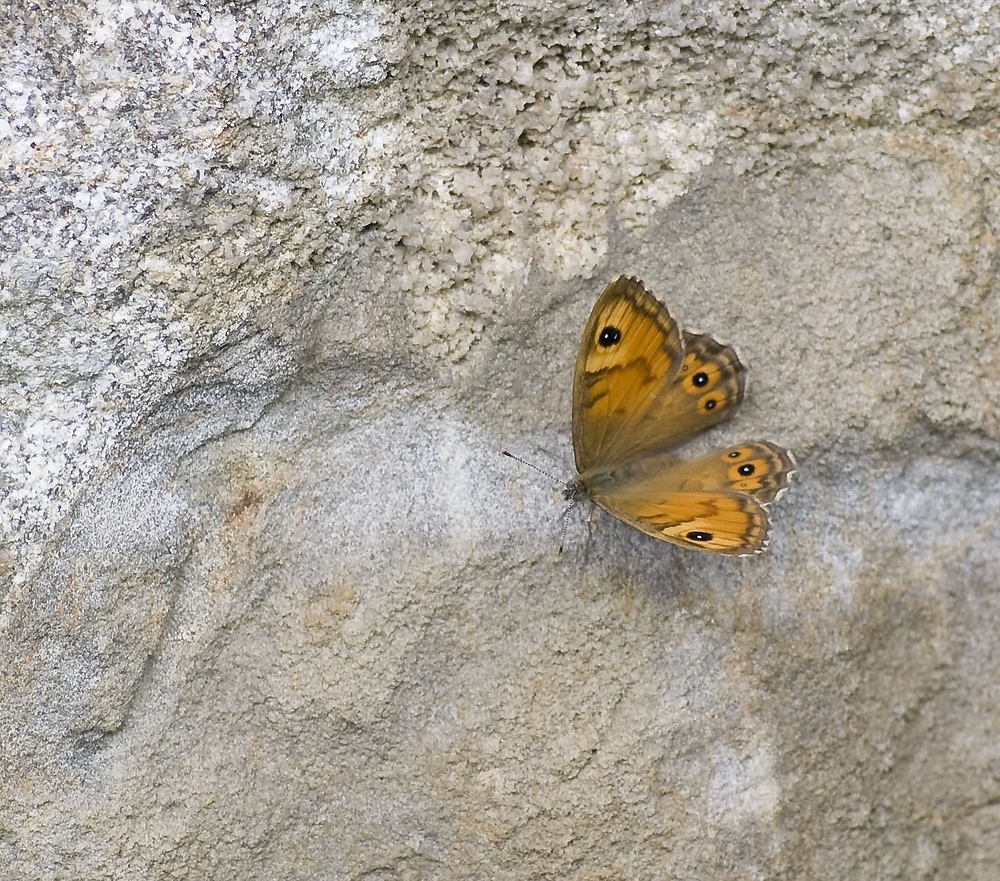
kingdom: Animalia
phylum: Arthropoda
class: Insecta
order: Lepidoptera
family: Nymphalidae
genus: Pararge
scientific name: Pararge Lasiommata maera
